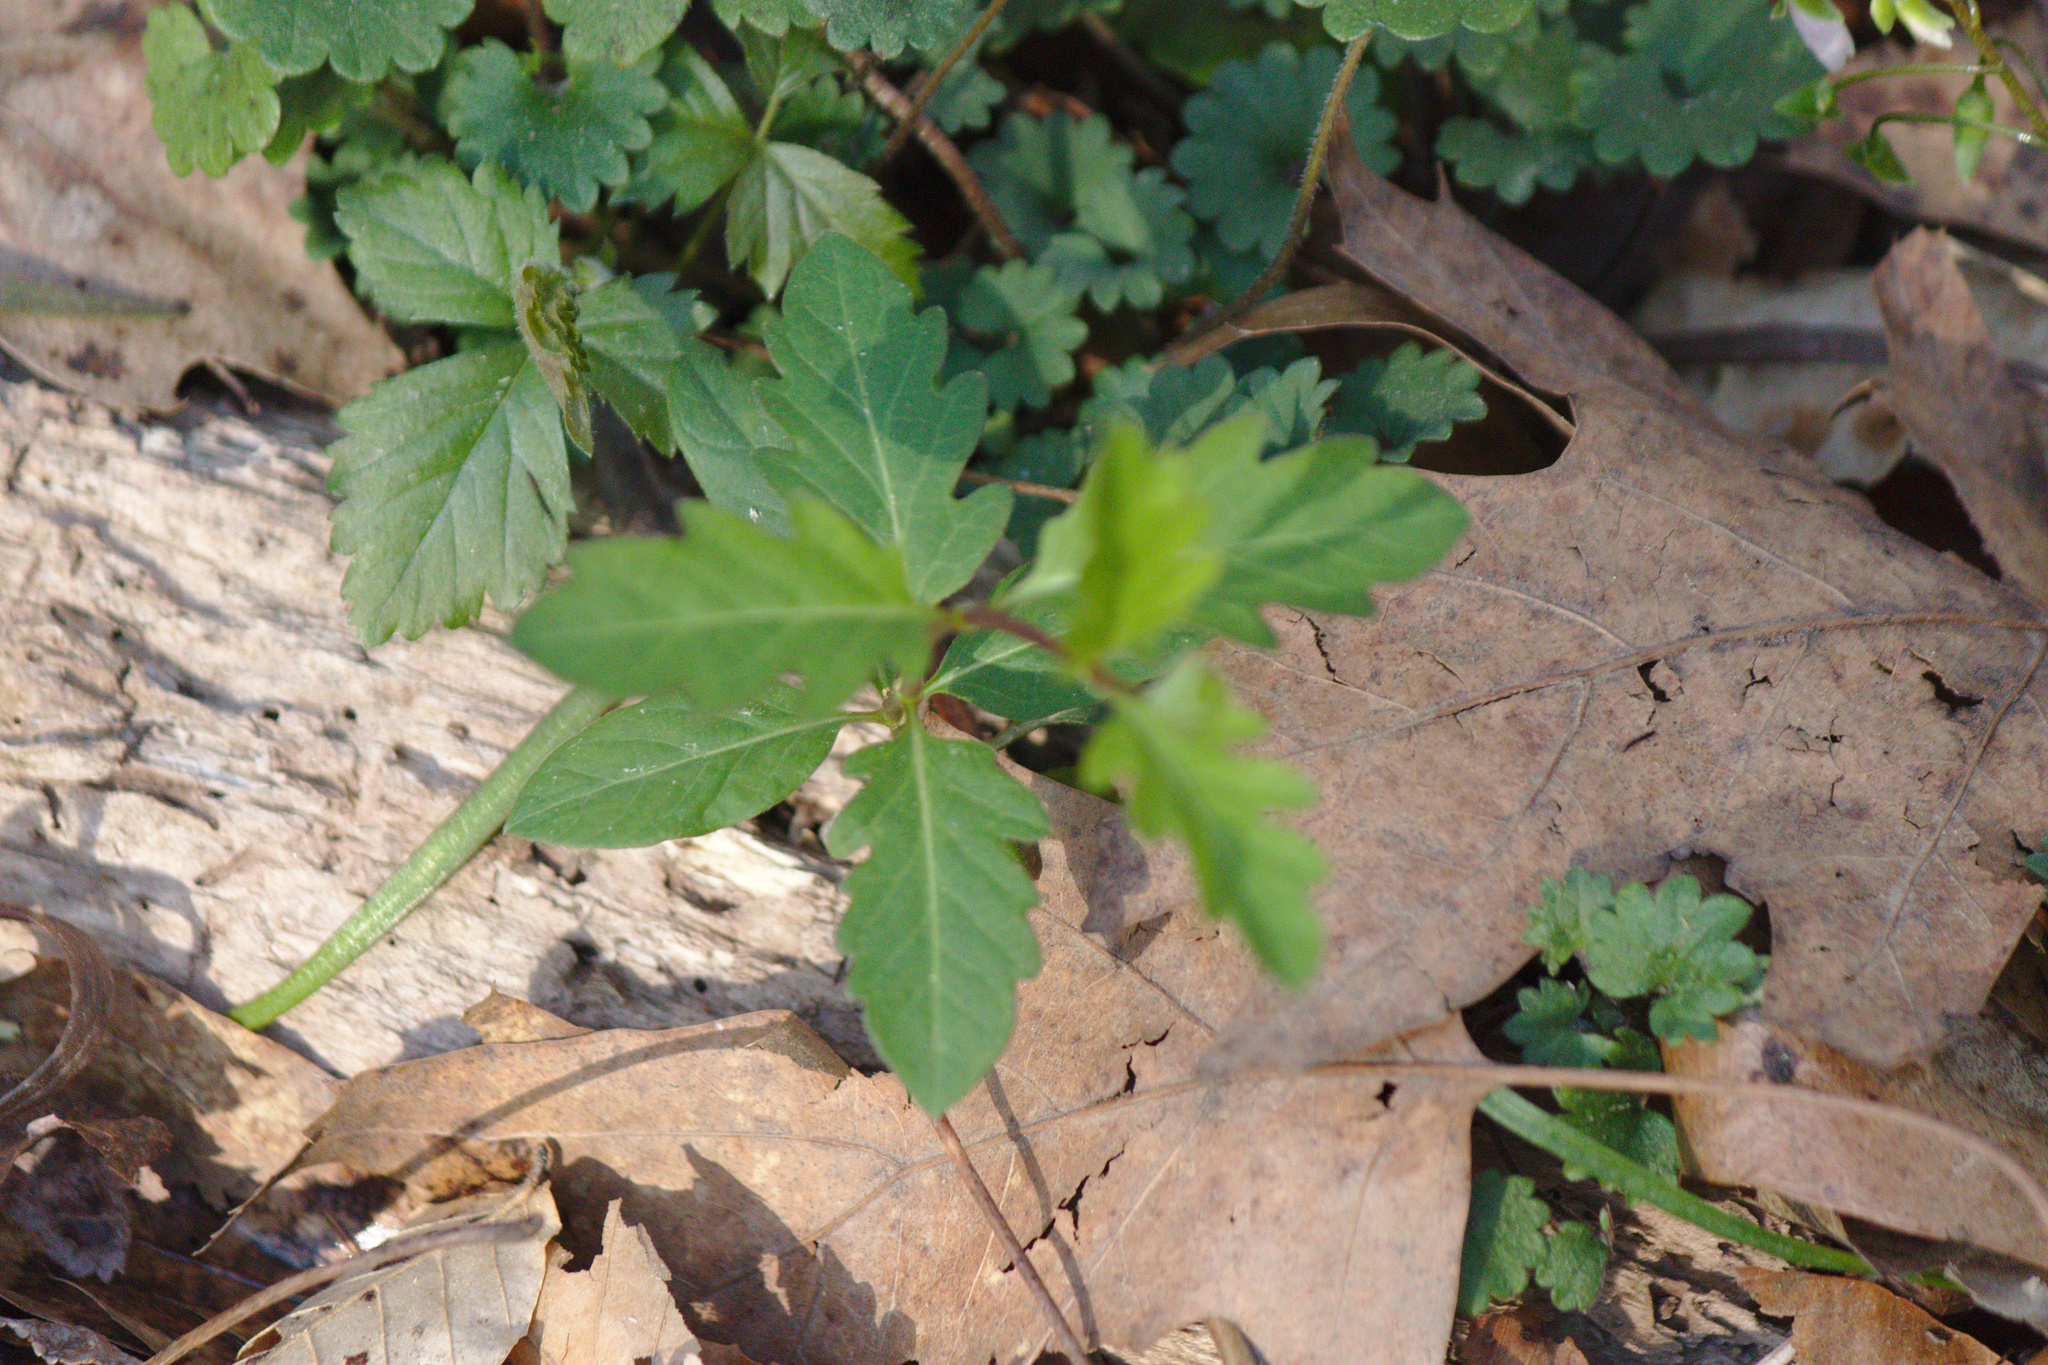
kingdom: Plantae
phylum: Tracheophyta
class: Magnoliopsida
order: Dipsacales
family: Caprifoliaceae
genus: Lonicera
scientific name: Lonicera japonica
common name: Japanese honeysuckle
